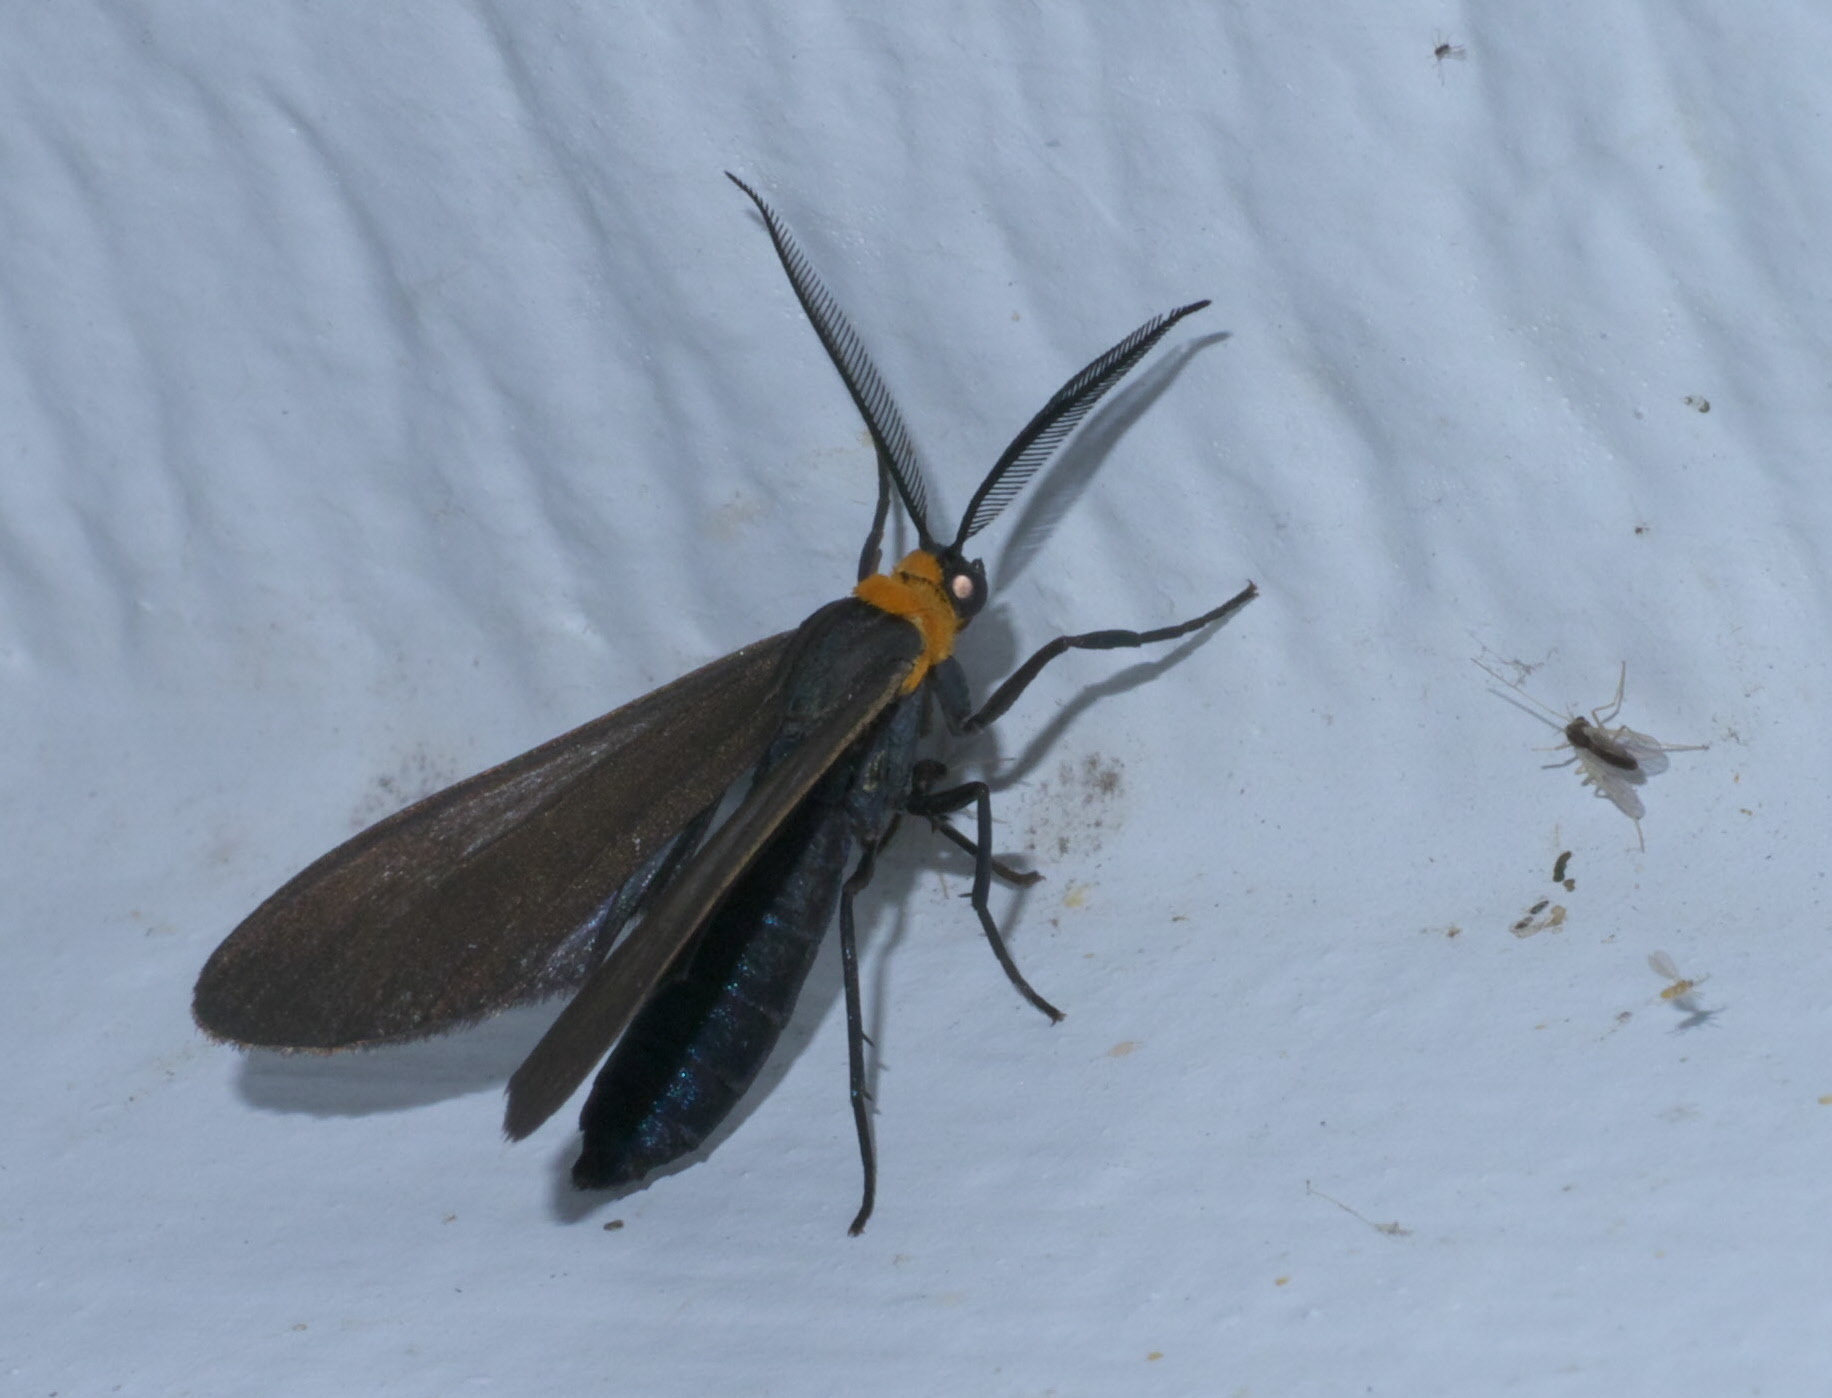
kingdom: Animalia
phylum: Arthropoda
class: Insecta
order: Lepidoptera
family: Erebidae
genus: Cisseps
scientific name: Cisseps fulvicollis
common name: Yellow-collared scape moth
